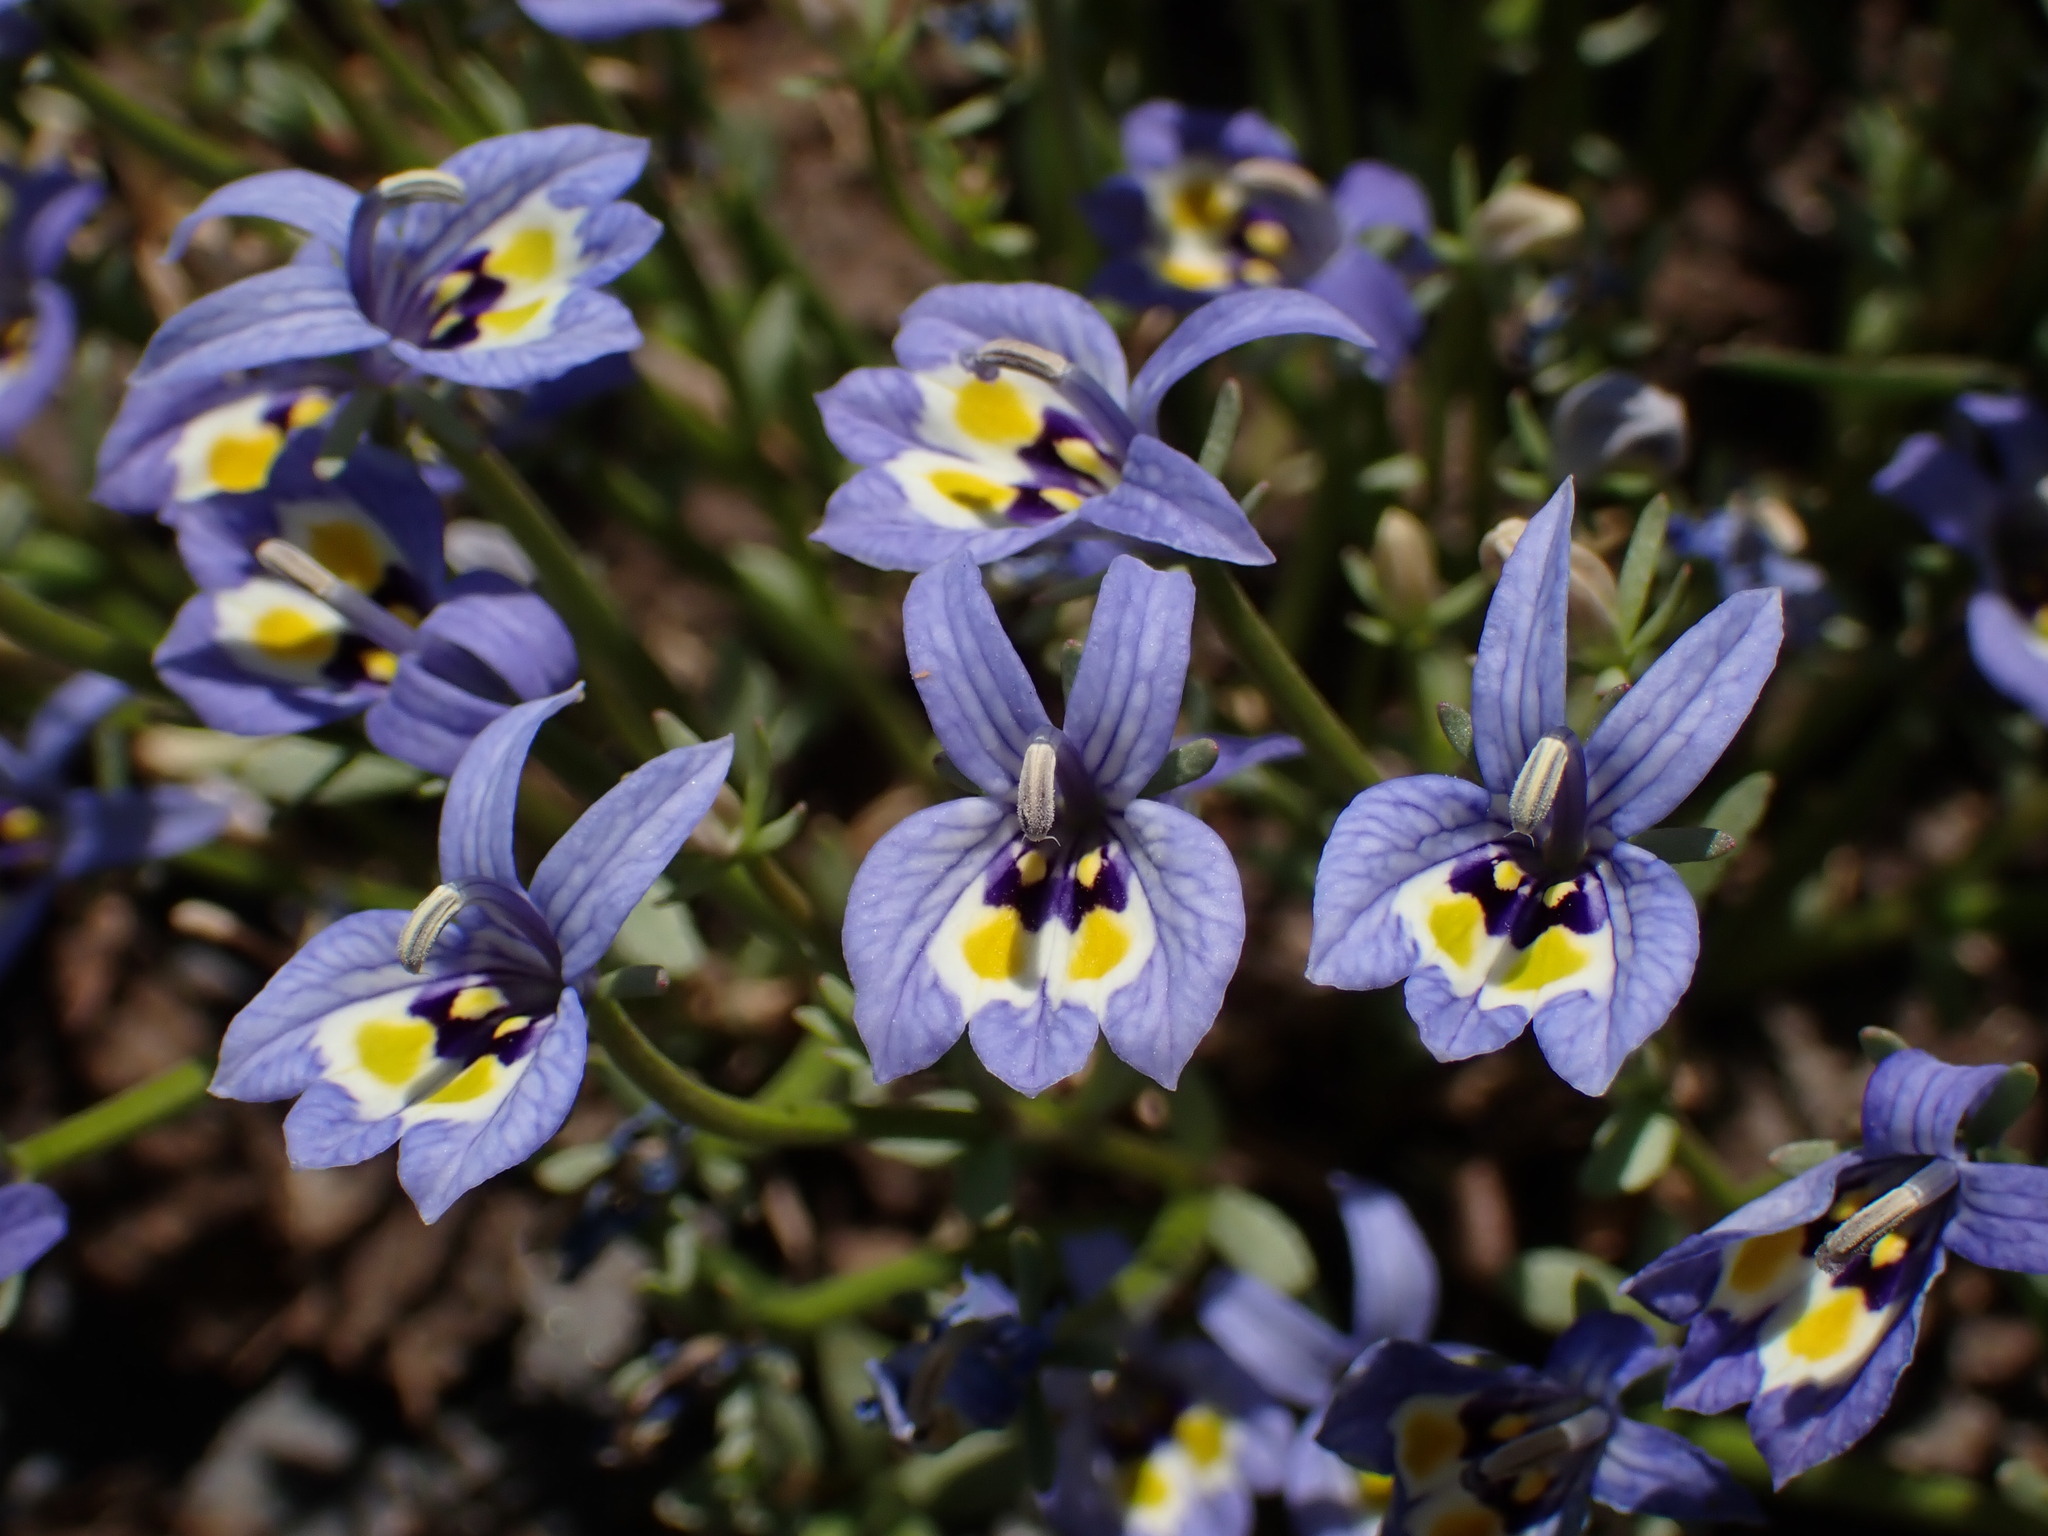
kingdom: Plantae
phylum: Tracheophyta
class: Magnoliopsida
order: Asterales
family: Campanulaceae
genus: Downingia
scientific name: Downingia insignis
